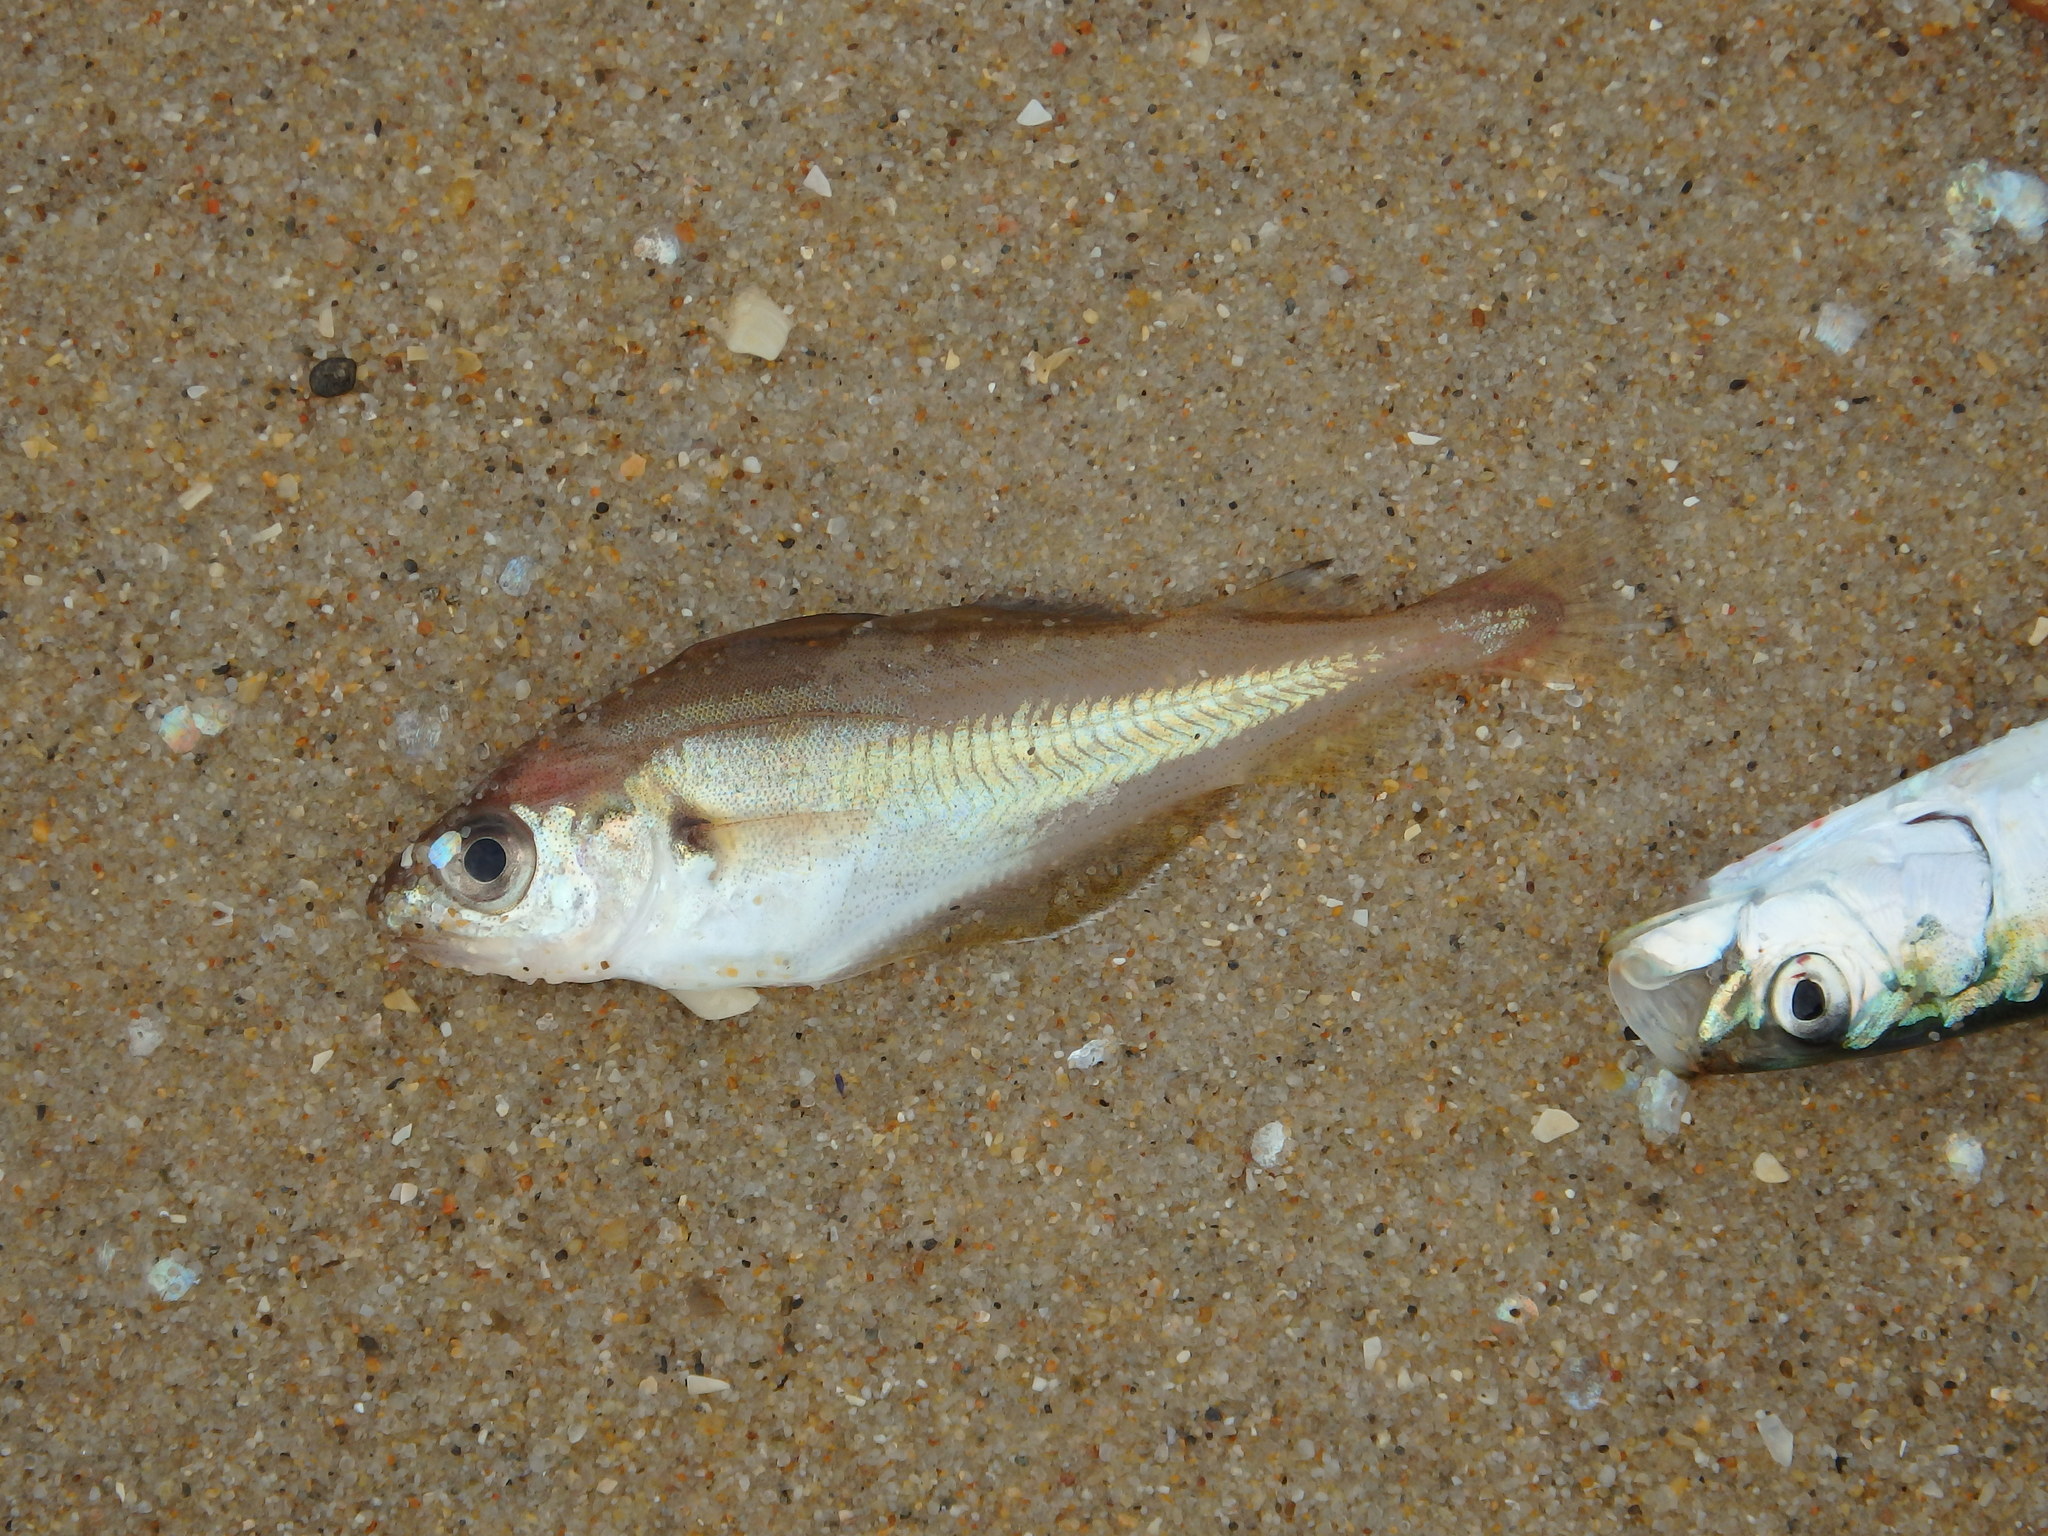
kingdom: Animalia
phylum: Chordata
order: Gadiformes
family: Gadidae
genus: Trisopterus
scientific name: Trisopterus luscus
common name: Bib
